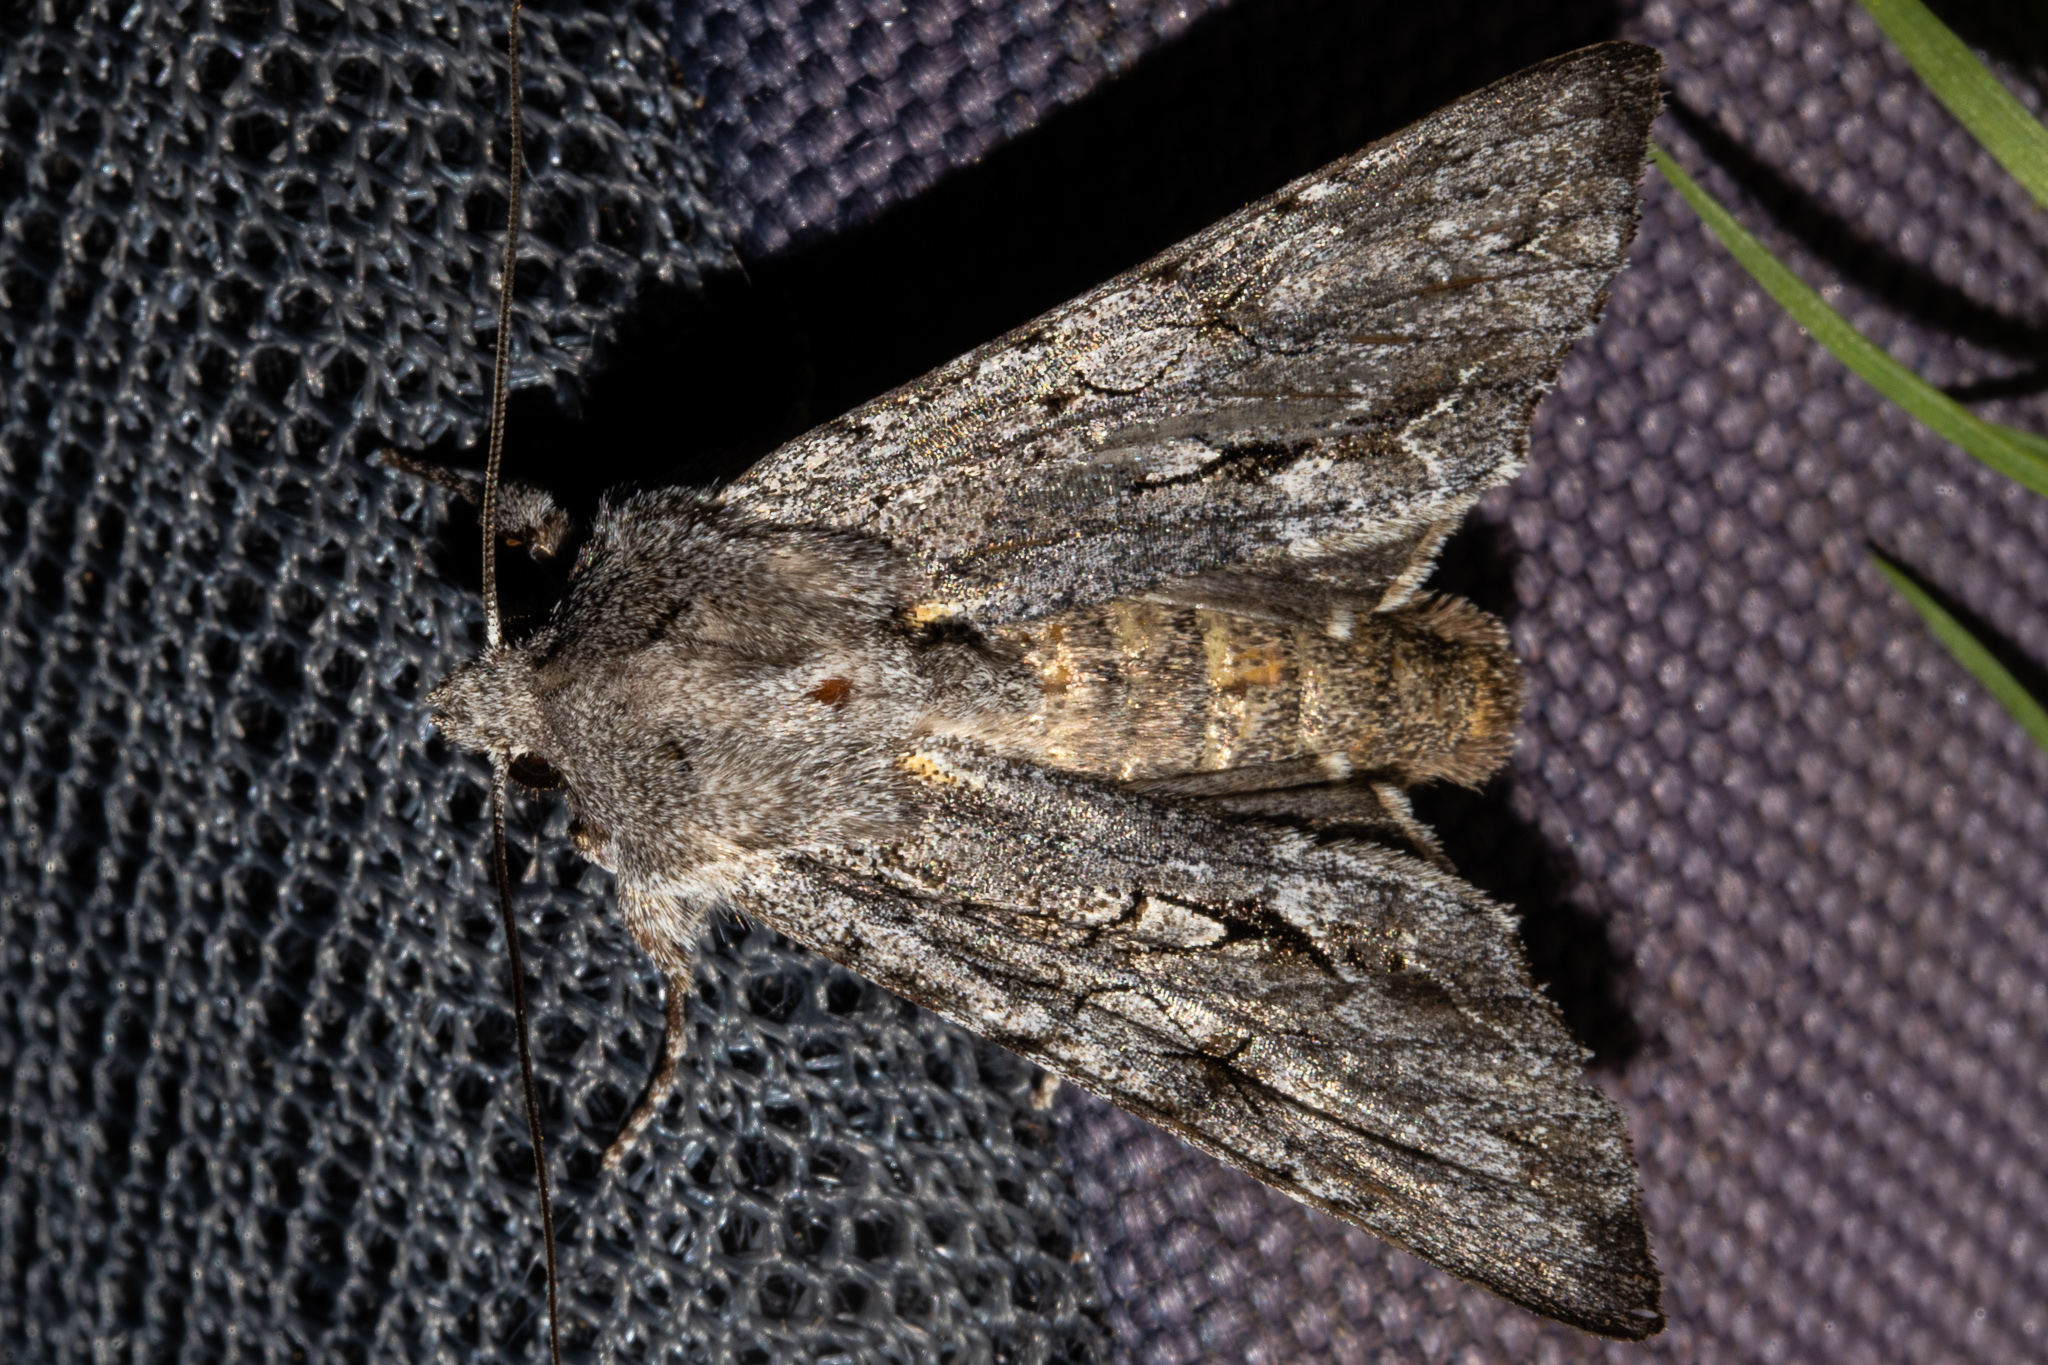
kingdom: Animalia
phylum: Arthropoda
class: Insecta
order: Lepidoptera
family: Noctuidae
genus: Ichneutica
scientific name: Ichneutica
